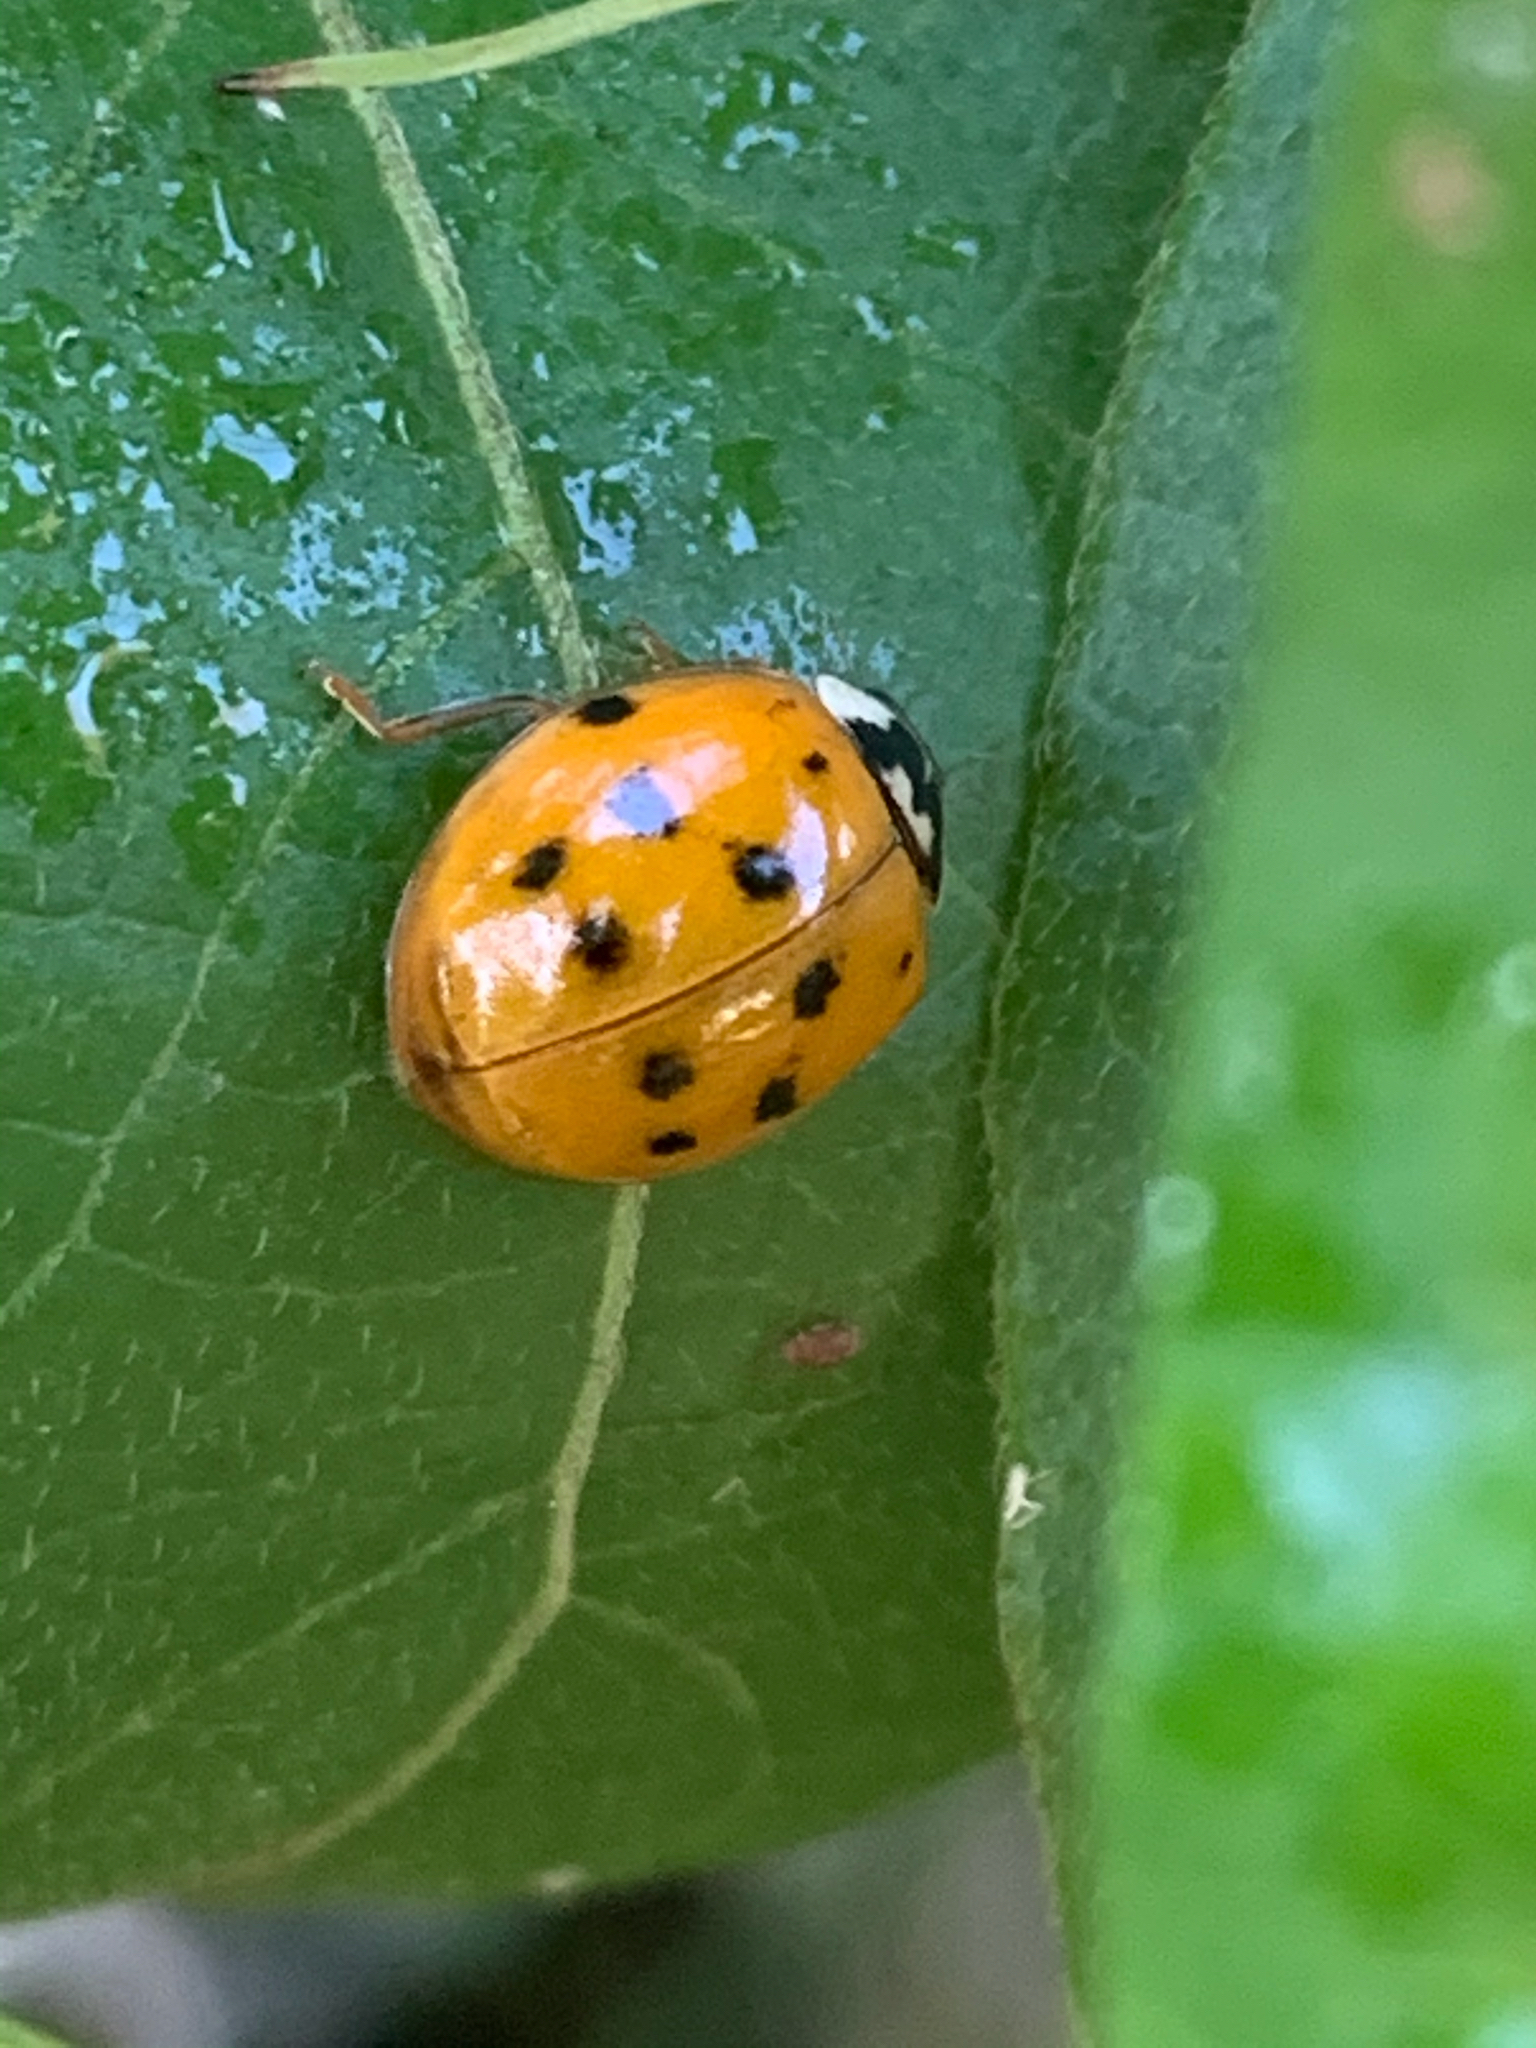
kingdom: Animalia
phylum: Arthropoda
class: Insecta
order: Coleoptera
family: Coccinellidae
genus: Harmonia
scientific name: Harmonia axyridis
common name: Harlequin ladybird
